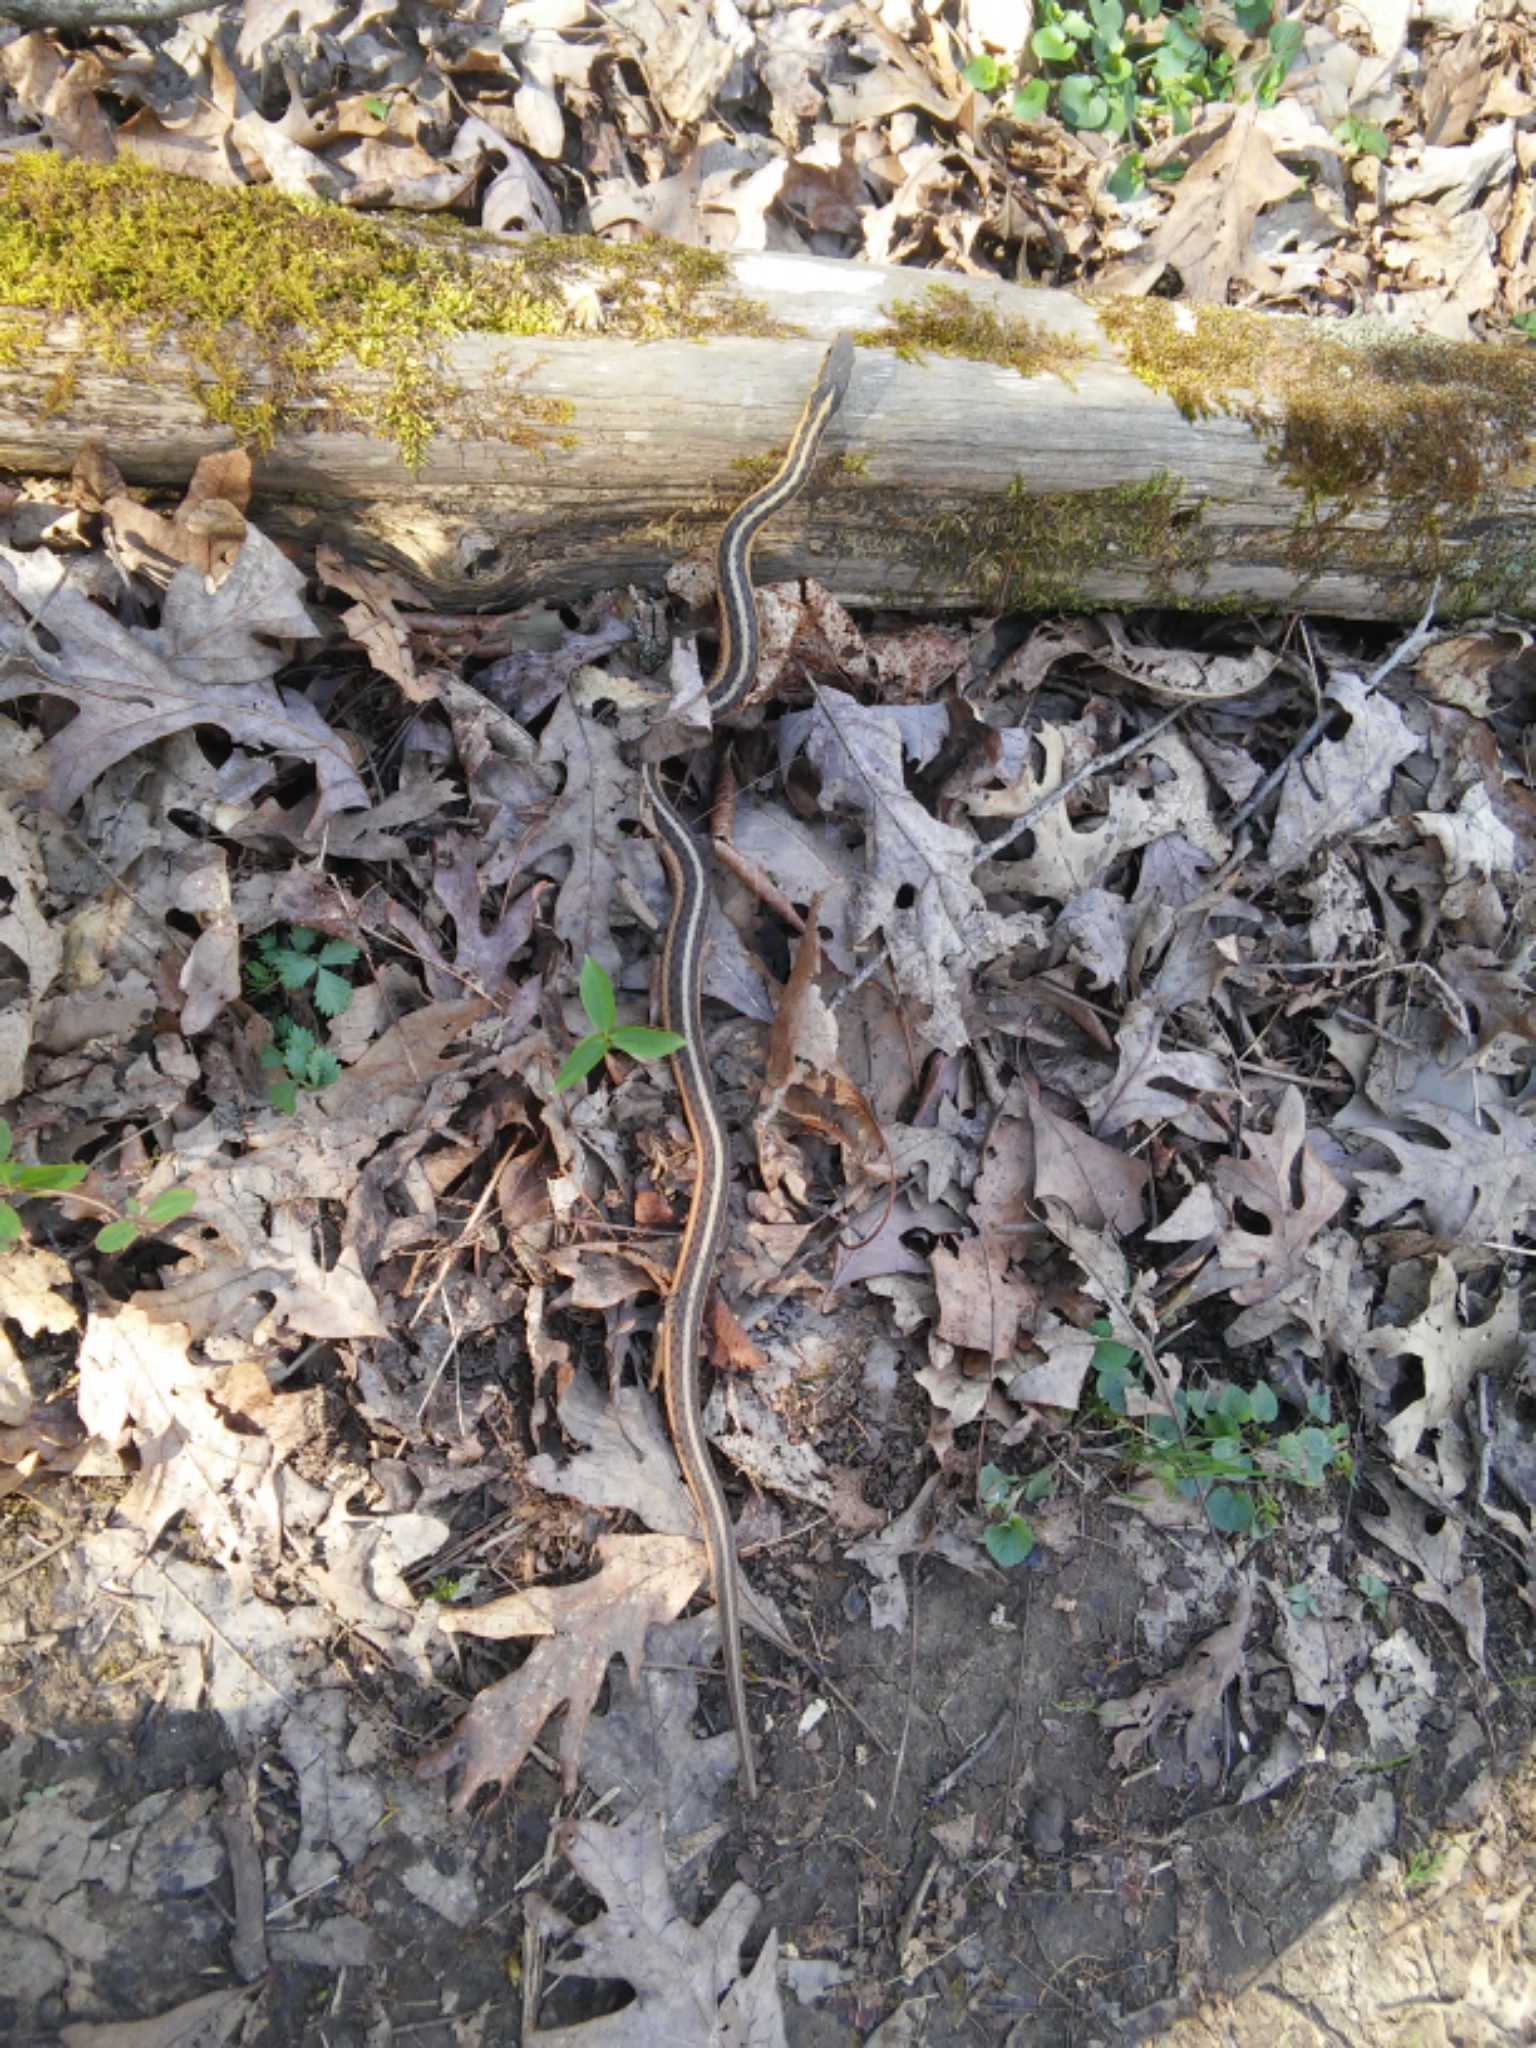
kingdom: Animalia
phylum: Chordata
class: Squamata
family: Colubridae
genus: Thamnophis
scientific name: Thamnophis sirtalis
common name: Common garter snake
